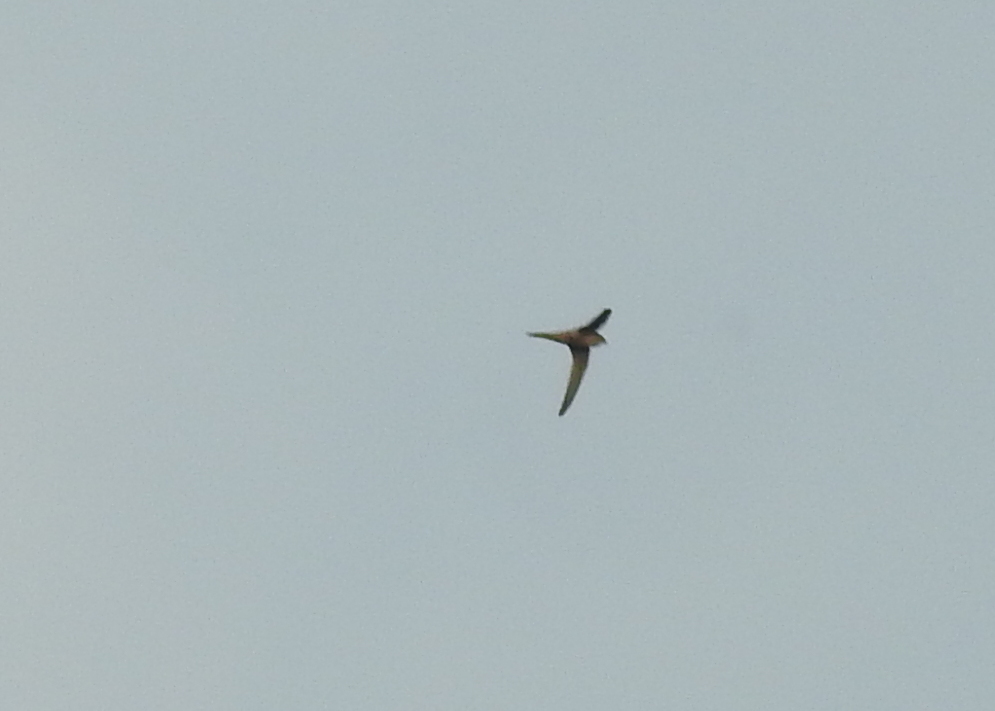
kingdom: Animalia
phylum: Chordata
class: Aves
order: Apodiformes
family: Apodidae
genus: Cypsiurus
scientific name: Cypsiurus balasiensis
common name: Asian palm swift
